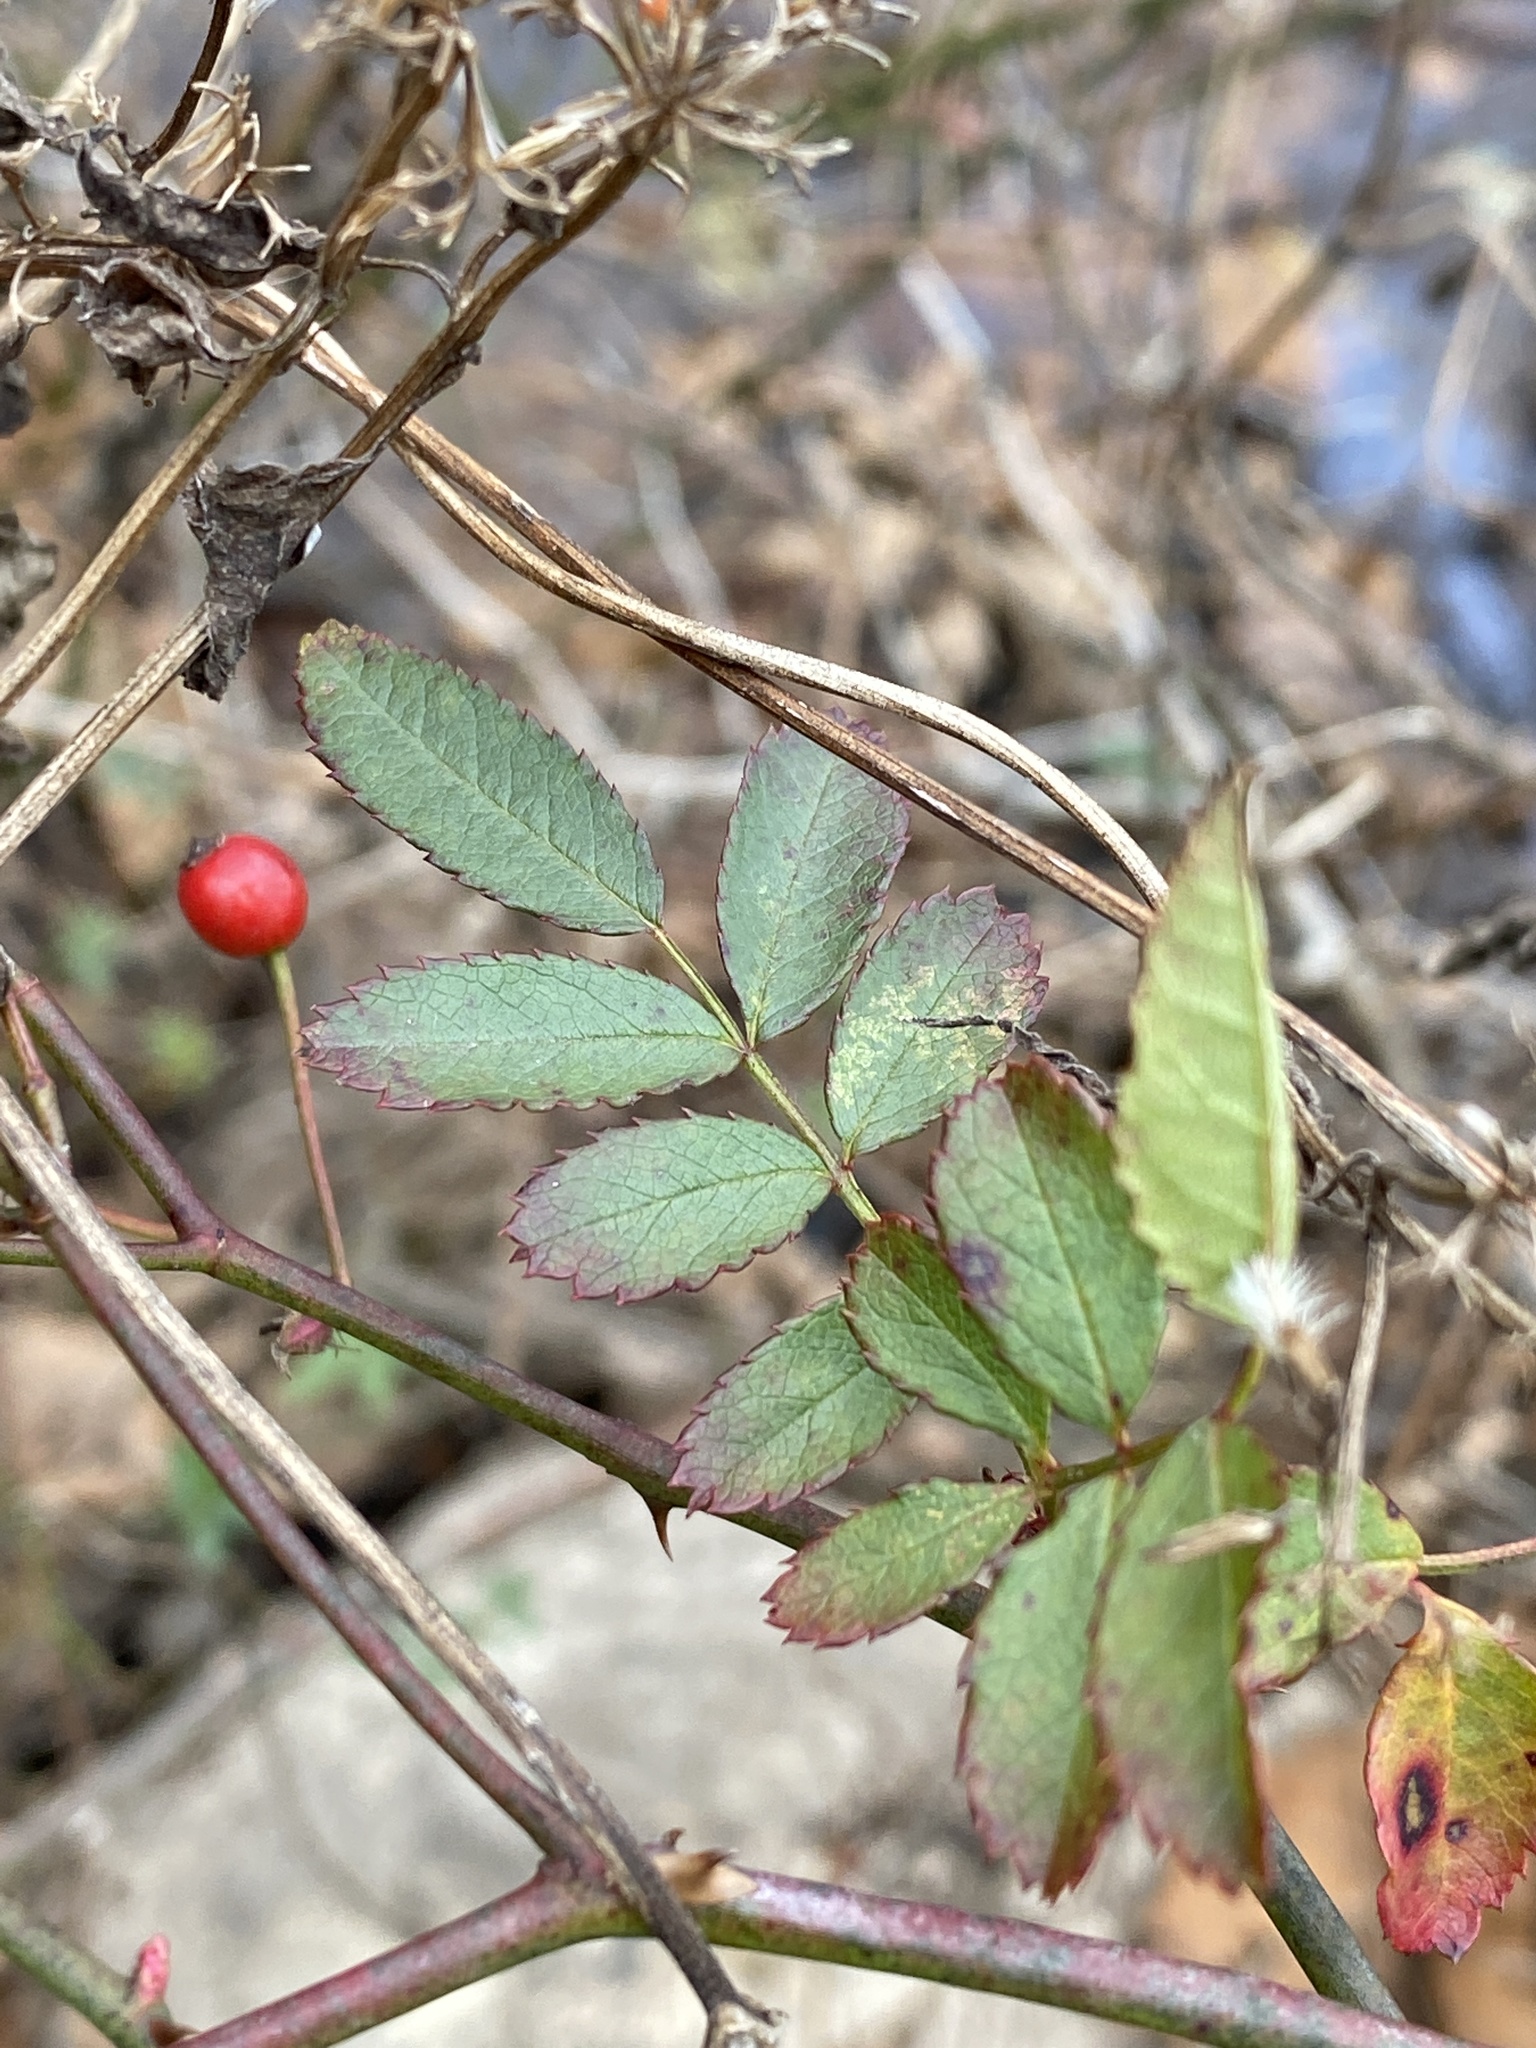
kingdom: Plantae
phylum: Tracheophyta
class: Magnoliopsida
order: Rosales
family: Rosaceae
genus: Rosa
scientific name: Rosa multiflora
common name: Multiflora rose
